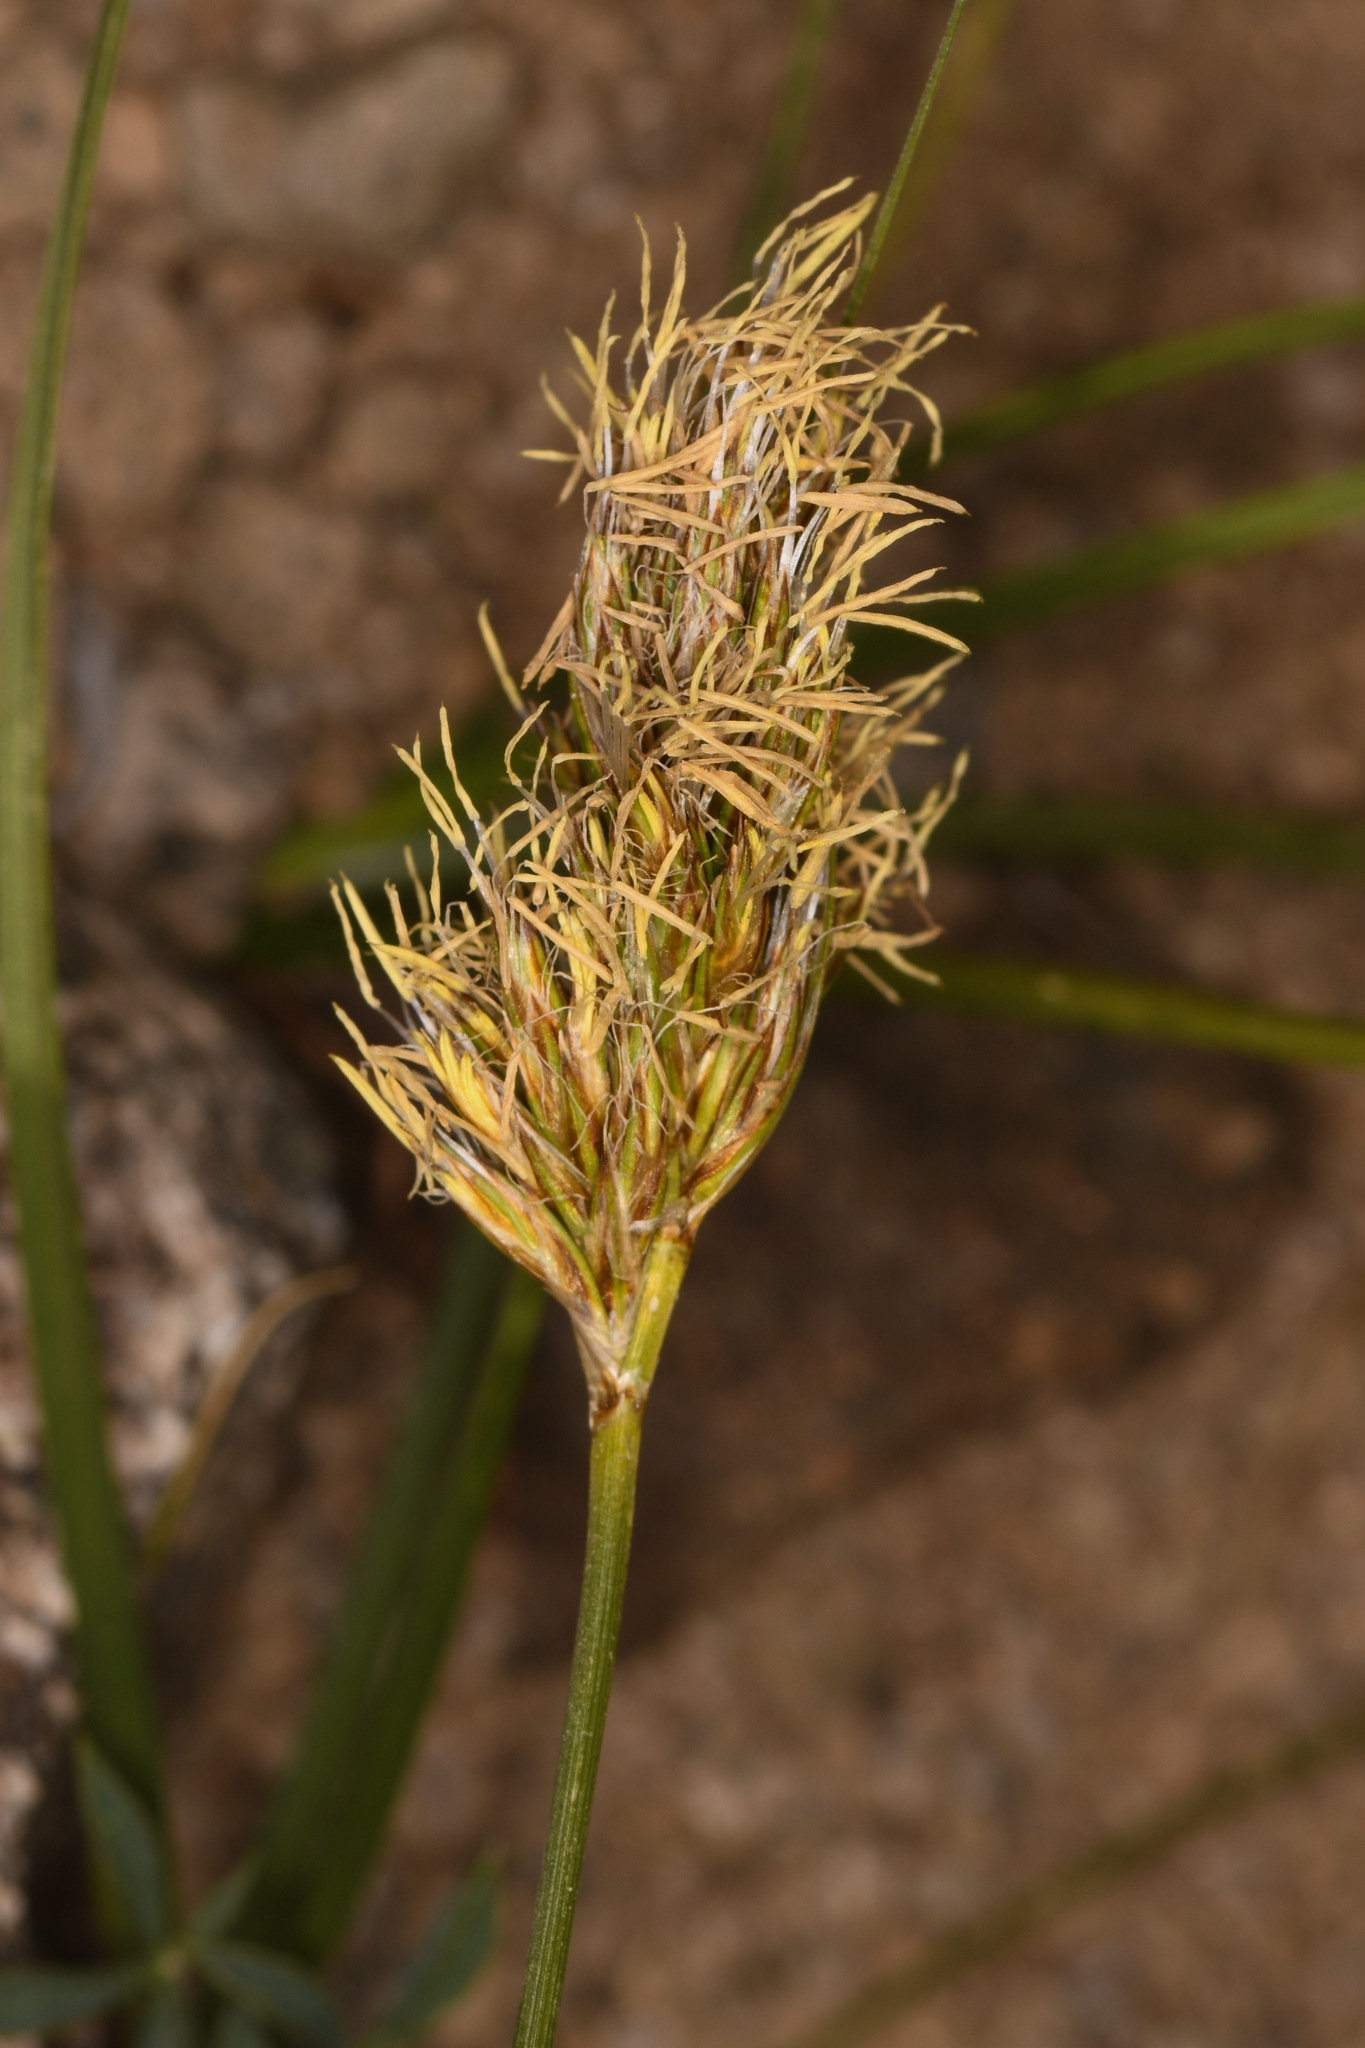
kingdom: Plantae
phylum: Tracheophyta
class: Liliopsida
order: Poales
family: Cyperaceae
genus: Carex
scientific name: Carex douglasii
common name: Douglas' sedge
